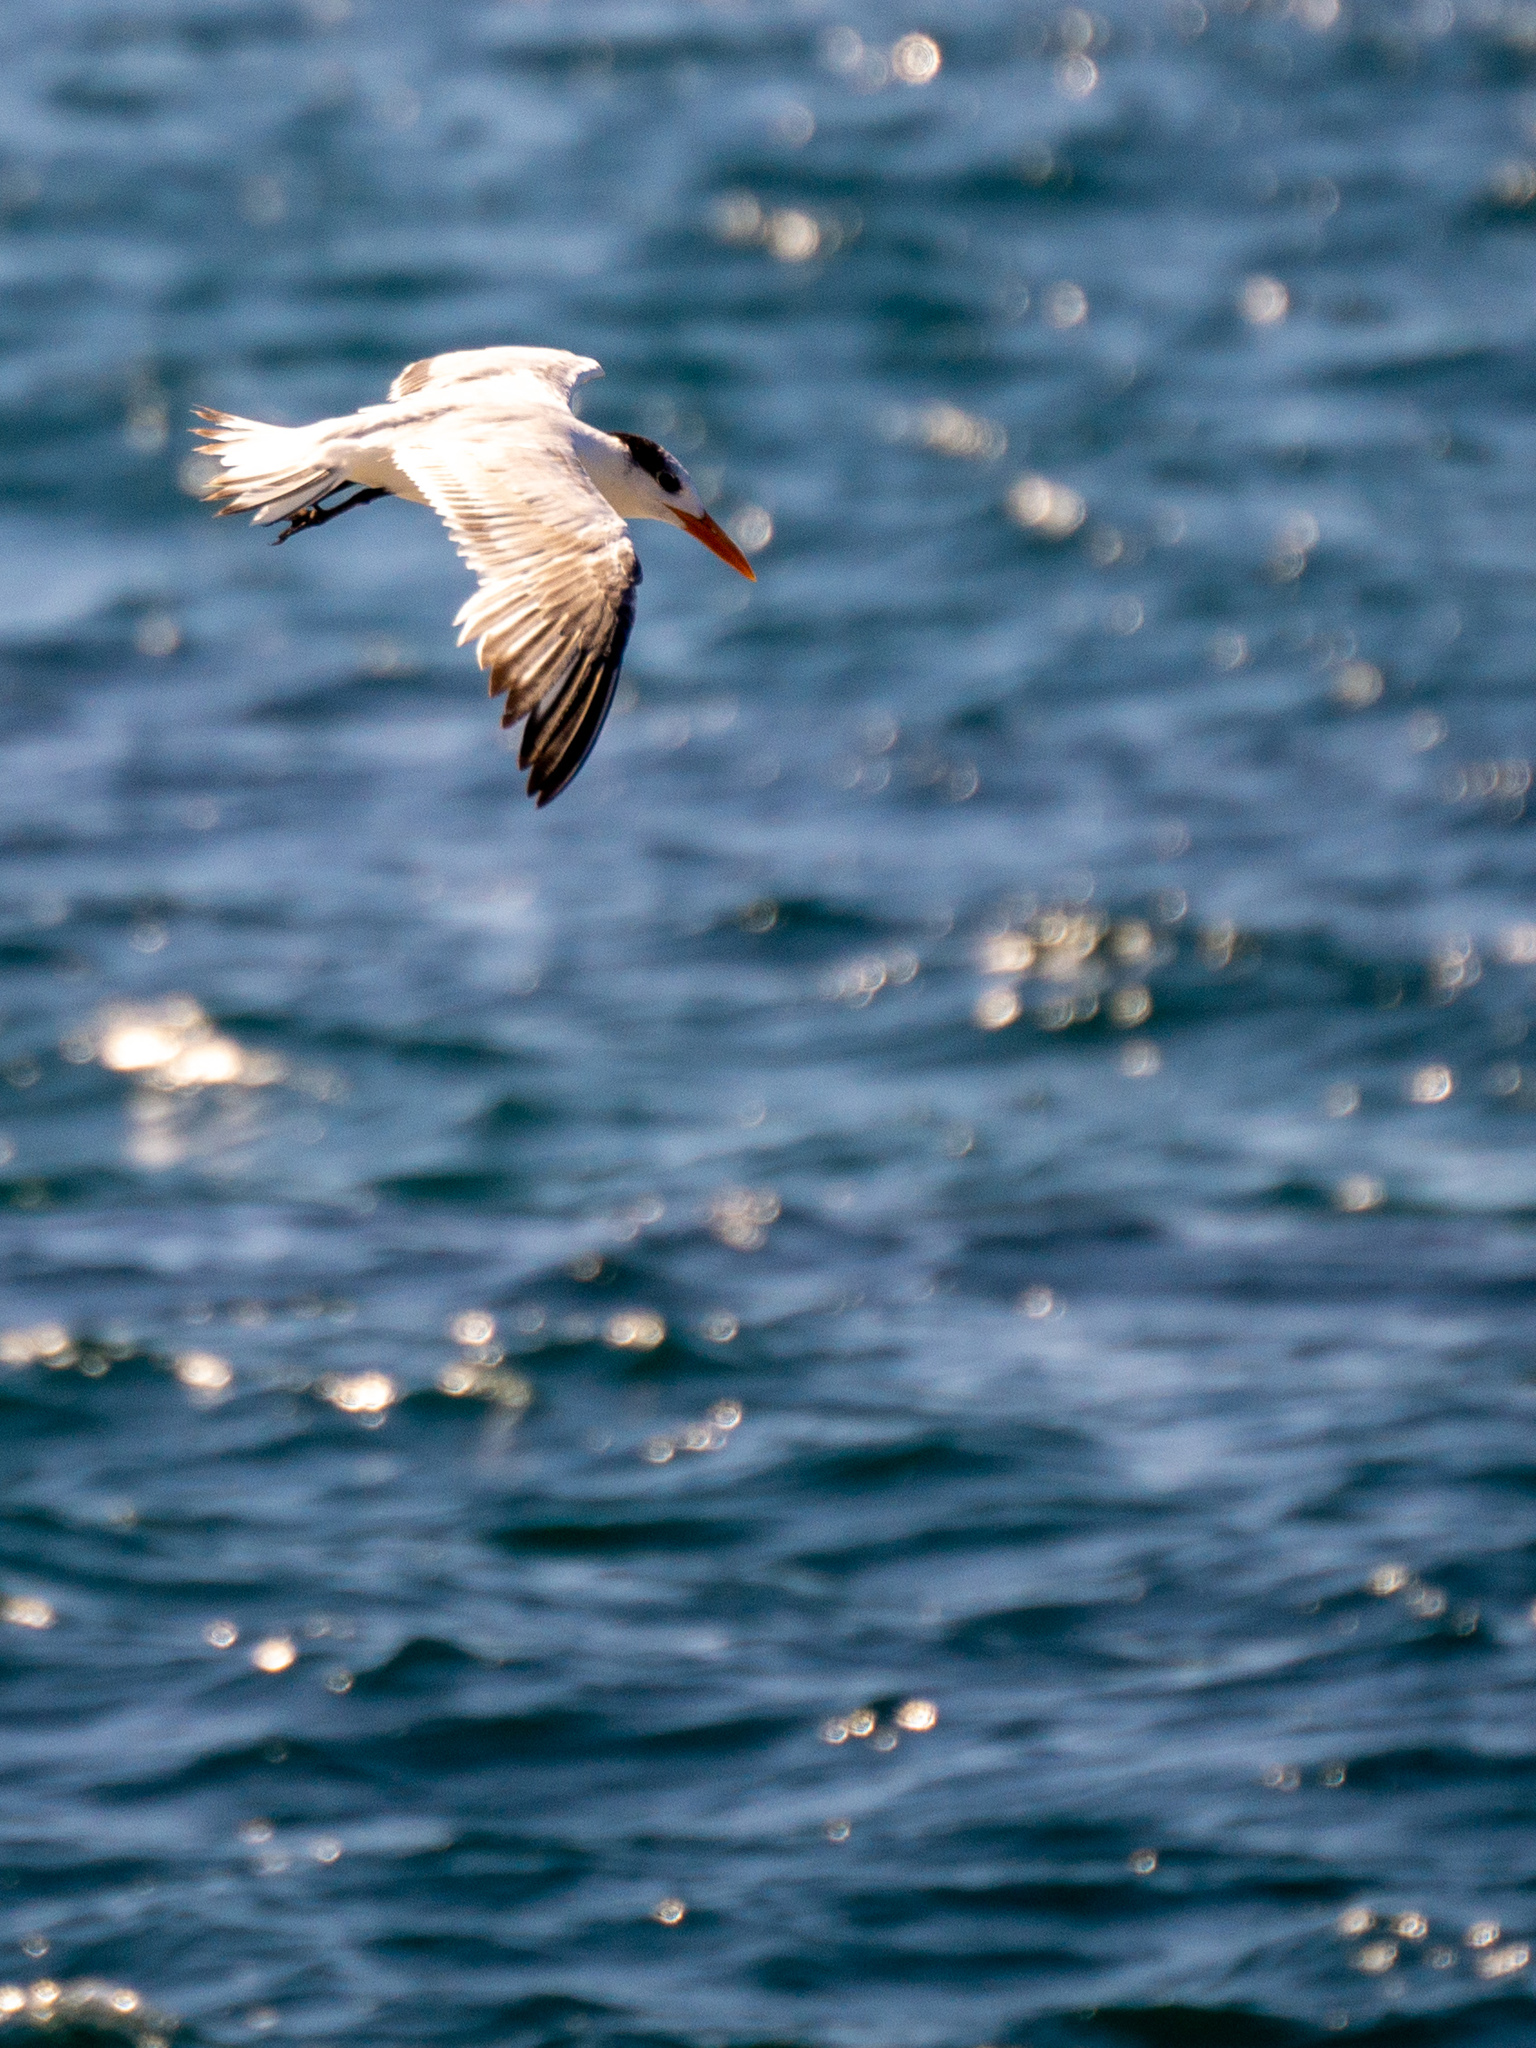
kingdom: Animalia
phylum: Chordata
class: Aves
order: Charadriiformes
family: Laridae
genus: Thalasseus
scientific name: Thalasseus maximus
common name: Royal tern
